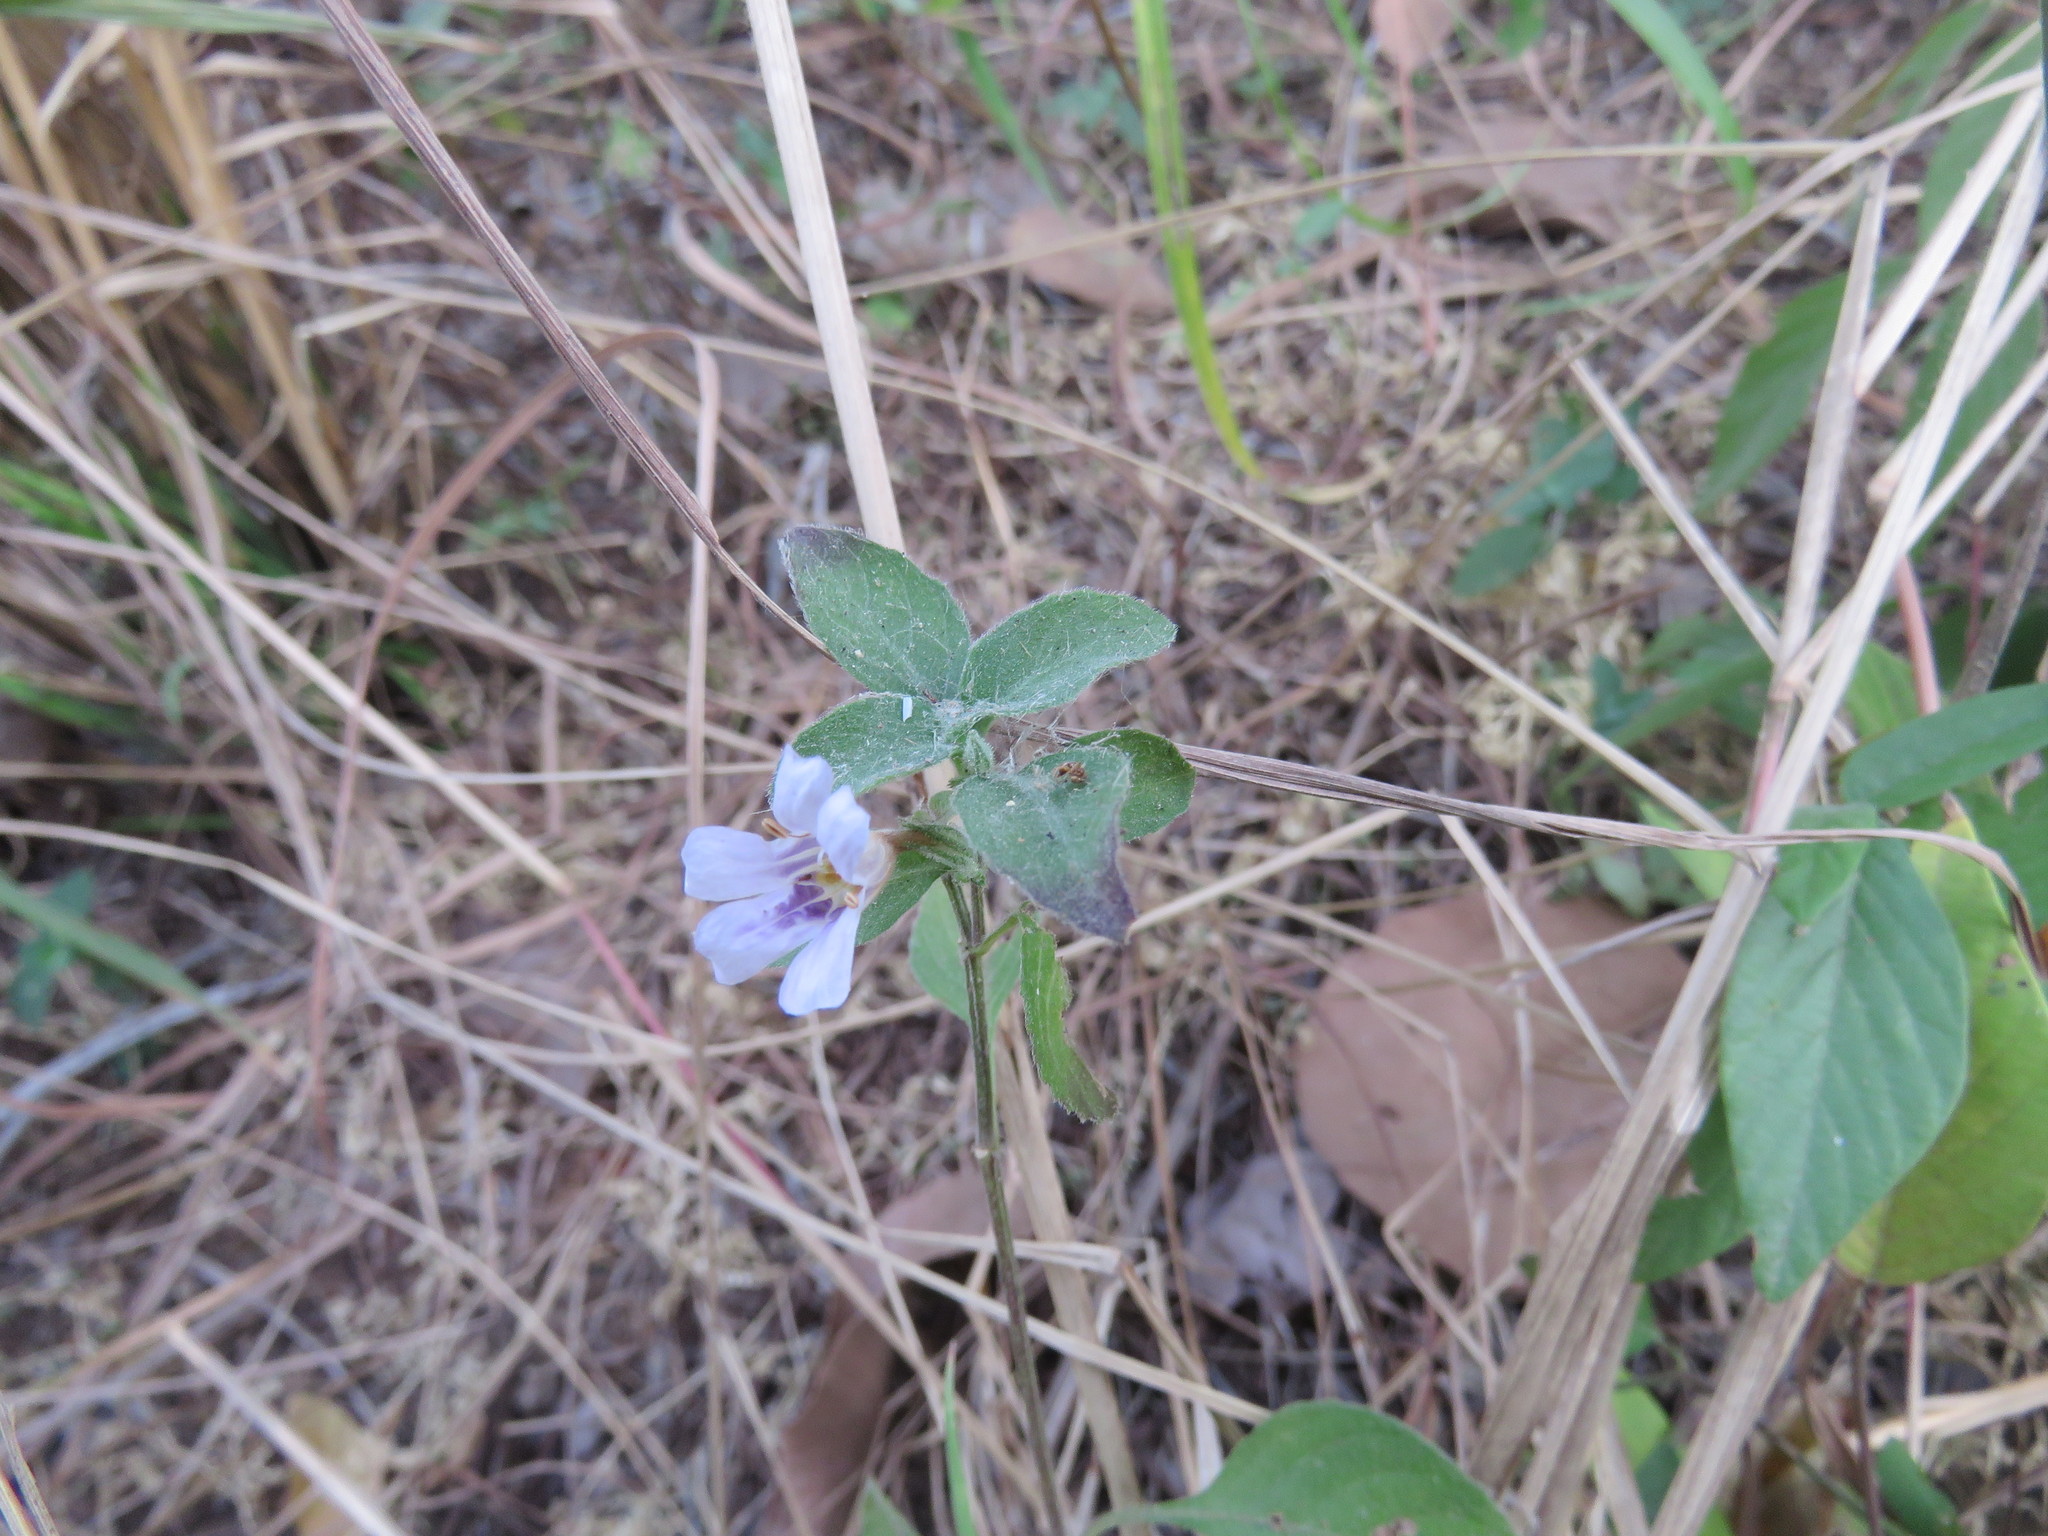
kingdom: Plantae
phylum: Tracheophyta
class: Magnoliopsida
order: Lamiales
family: Acanthaceae
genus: Dyschoriste
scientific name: Dyschoriste quadrangularis
